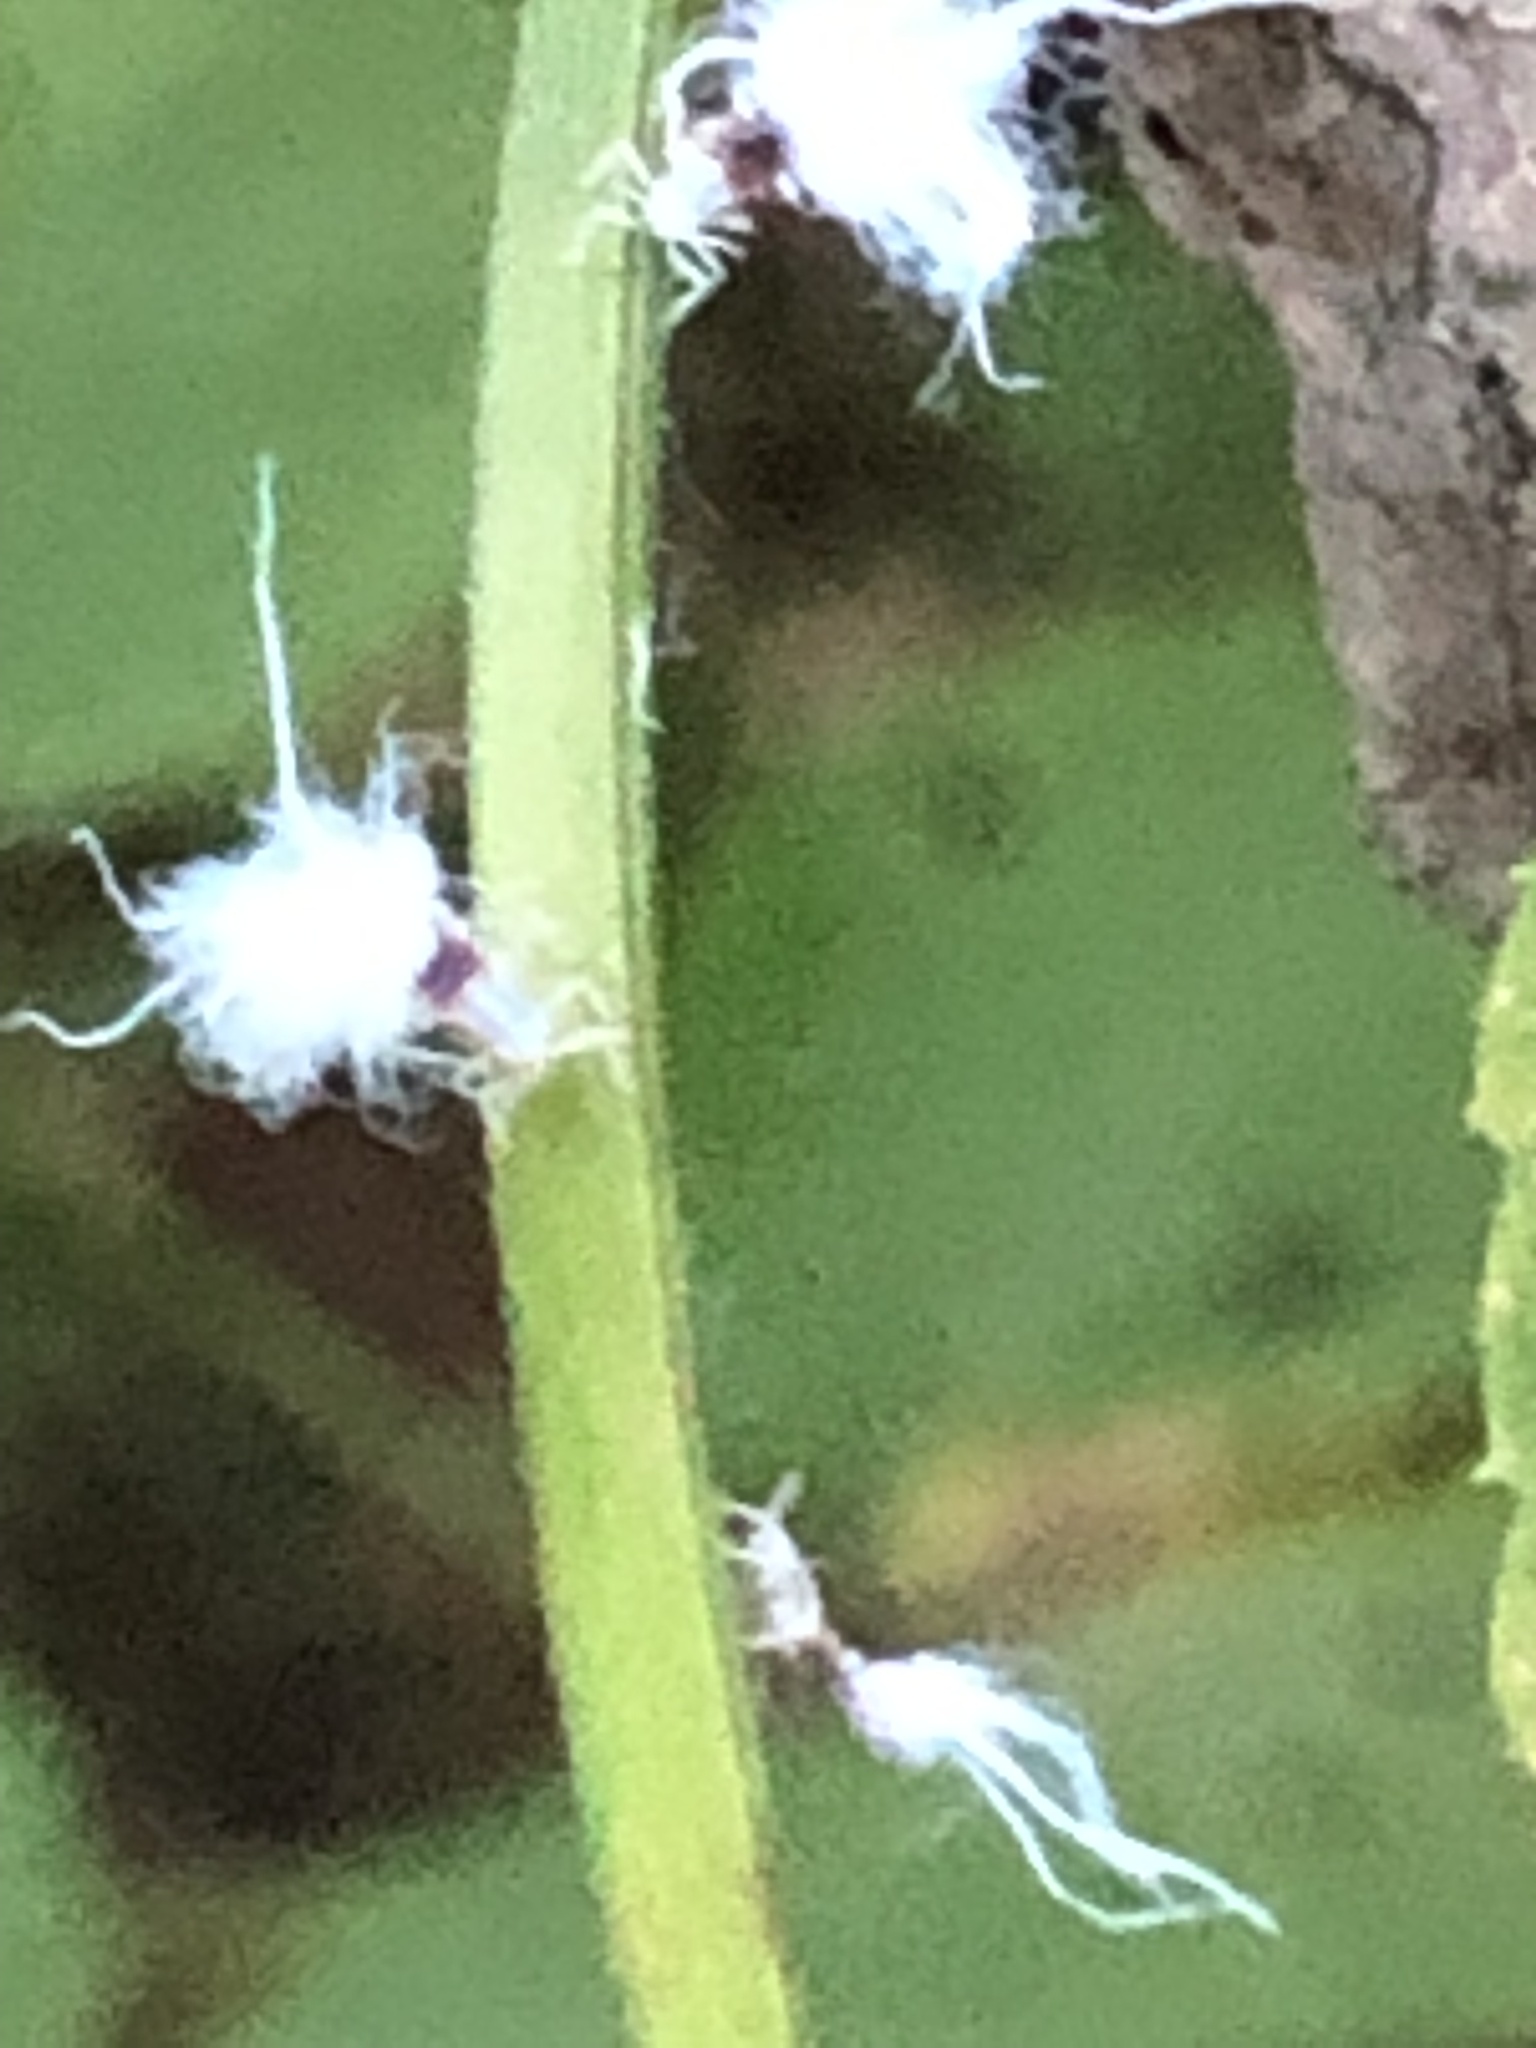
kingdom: Animalia
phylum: Arthropoda
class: Insecta
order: Hemiptera
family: Aphididae
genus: Grylloprociphilus
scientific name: Grylloprociphilus imbricator
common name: Beech blight aphid
